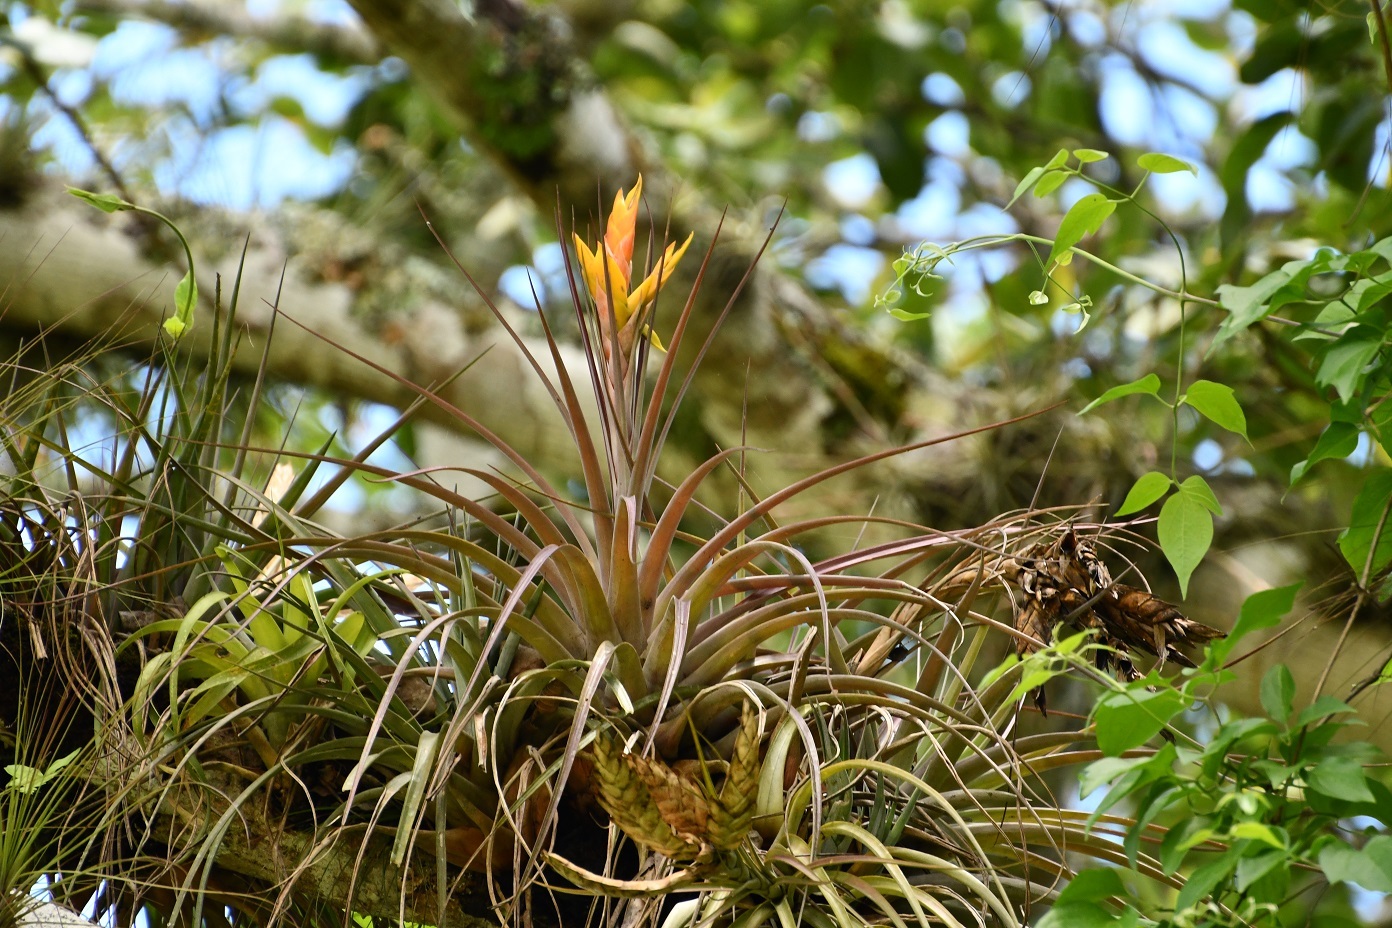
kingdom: Plantae
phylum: Tracheophyta
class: Liliopsida
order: Poales
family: Bromeliaceae
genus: Tillandsia
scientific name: Tillandsia zoquensis
